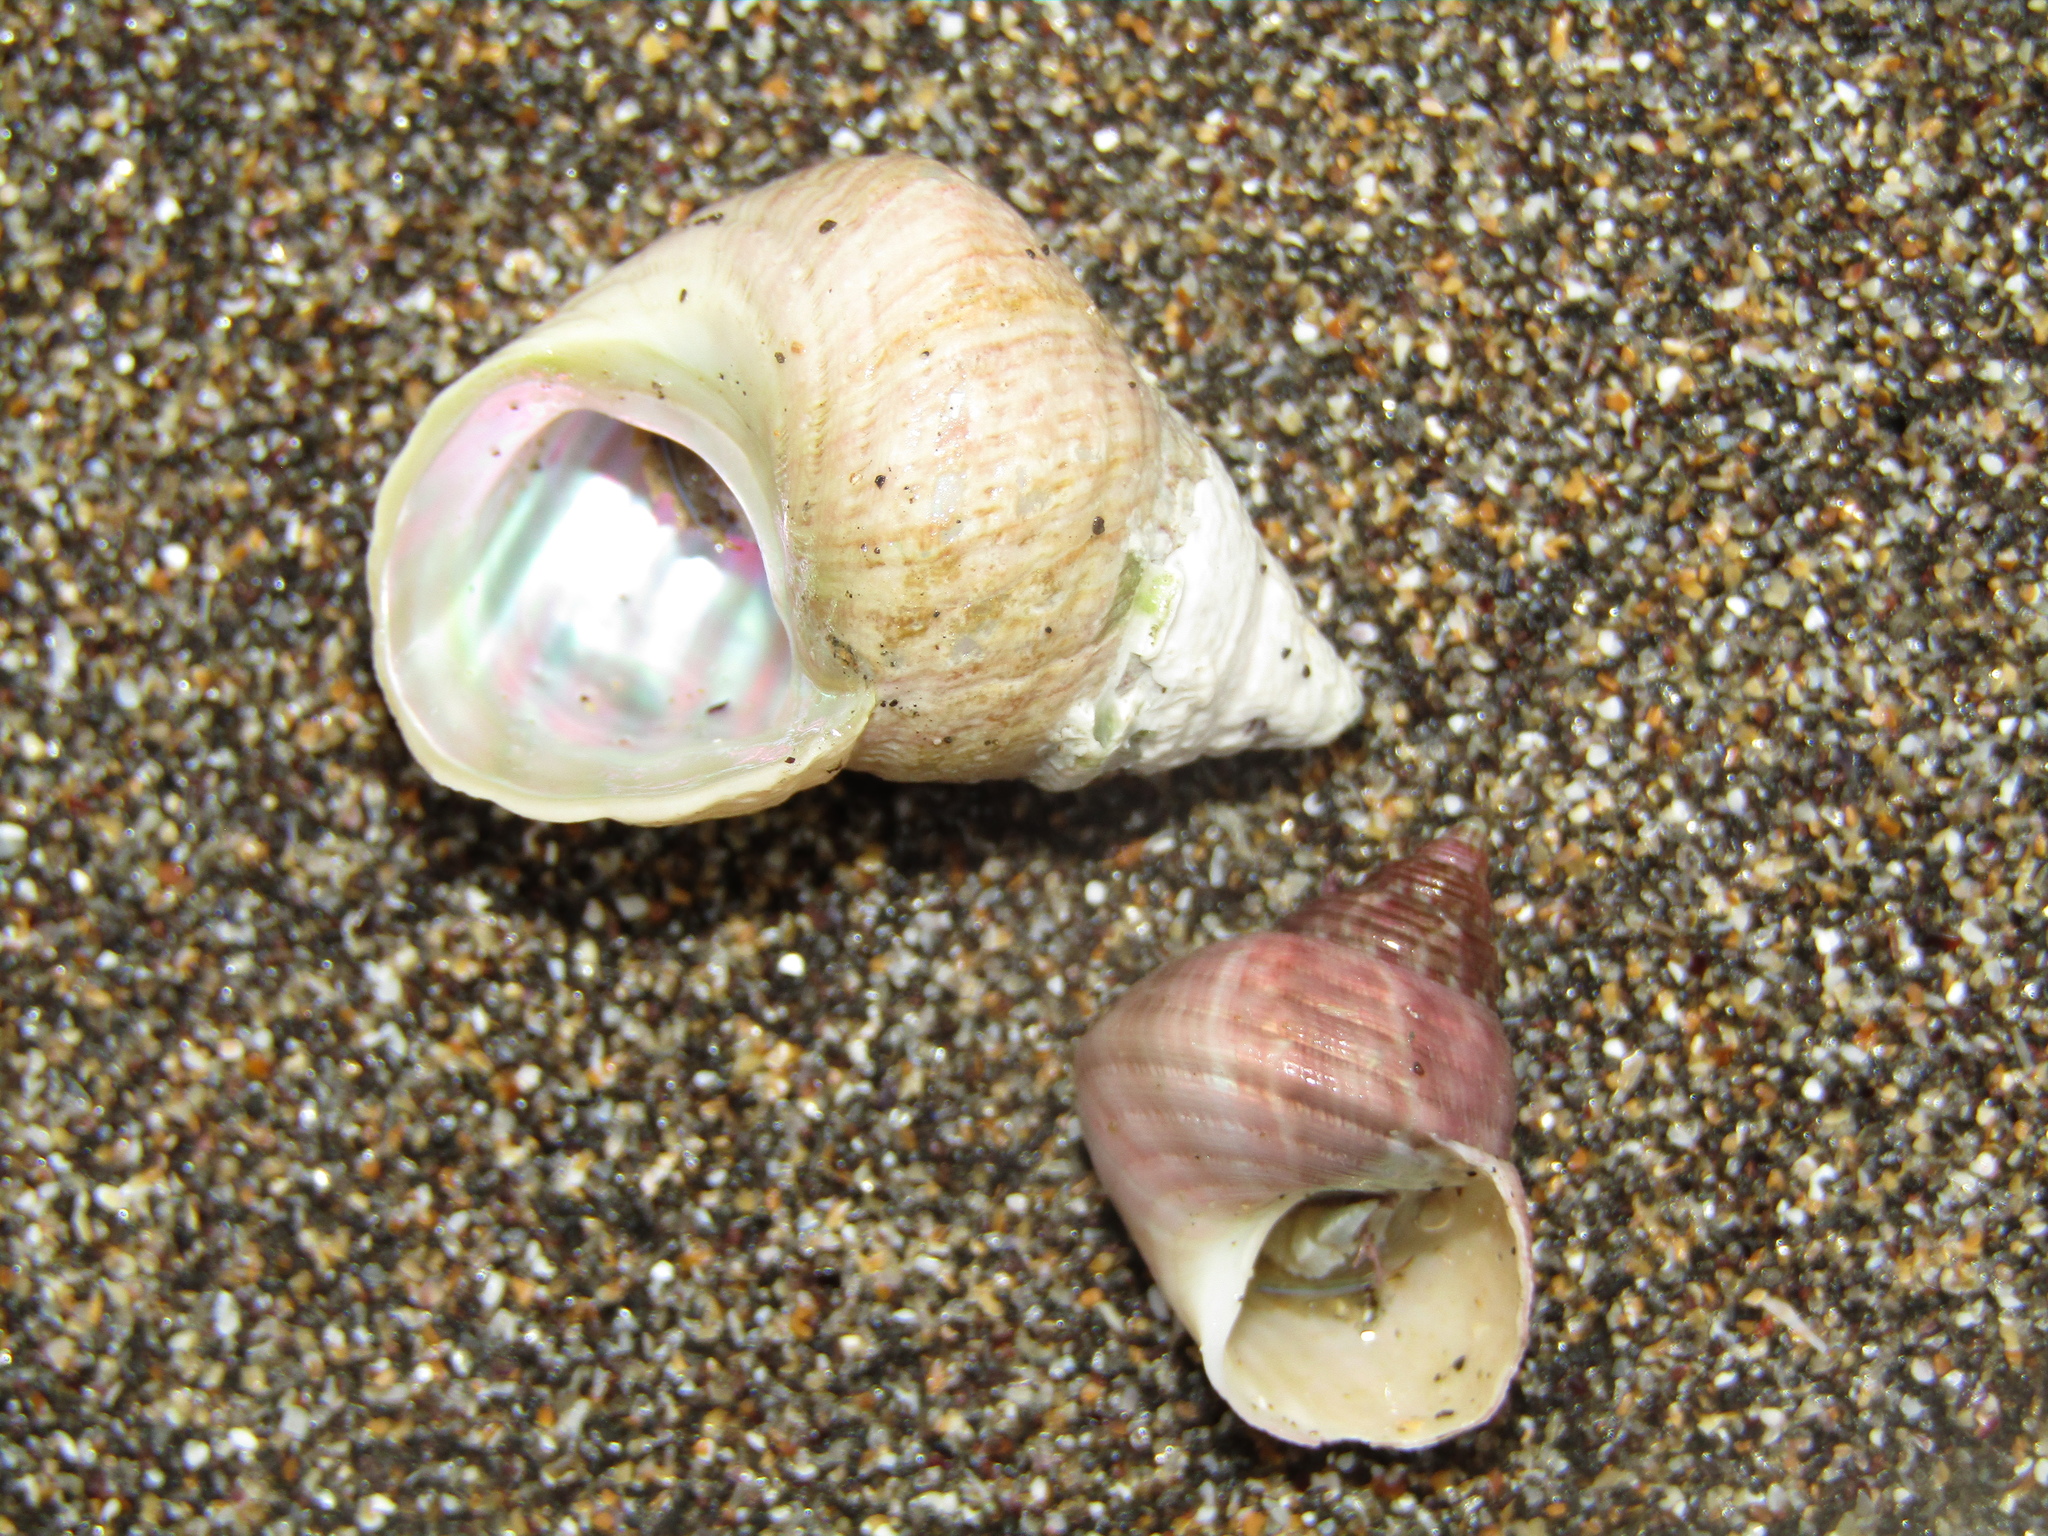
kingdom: Animalia
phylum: Mollusca
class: Gastropoda
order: Trochida
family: Trochidae
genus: Micrelenchus
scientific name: Micrelenchus purpureus
